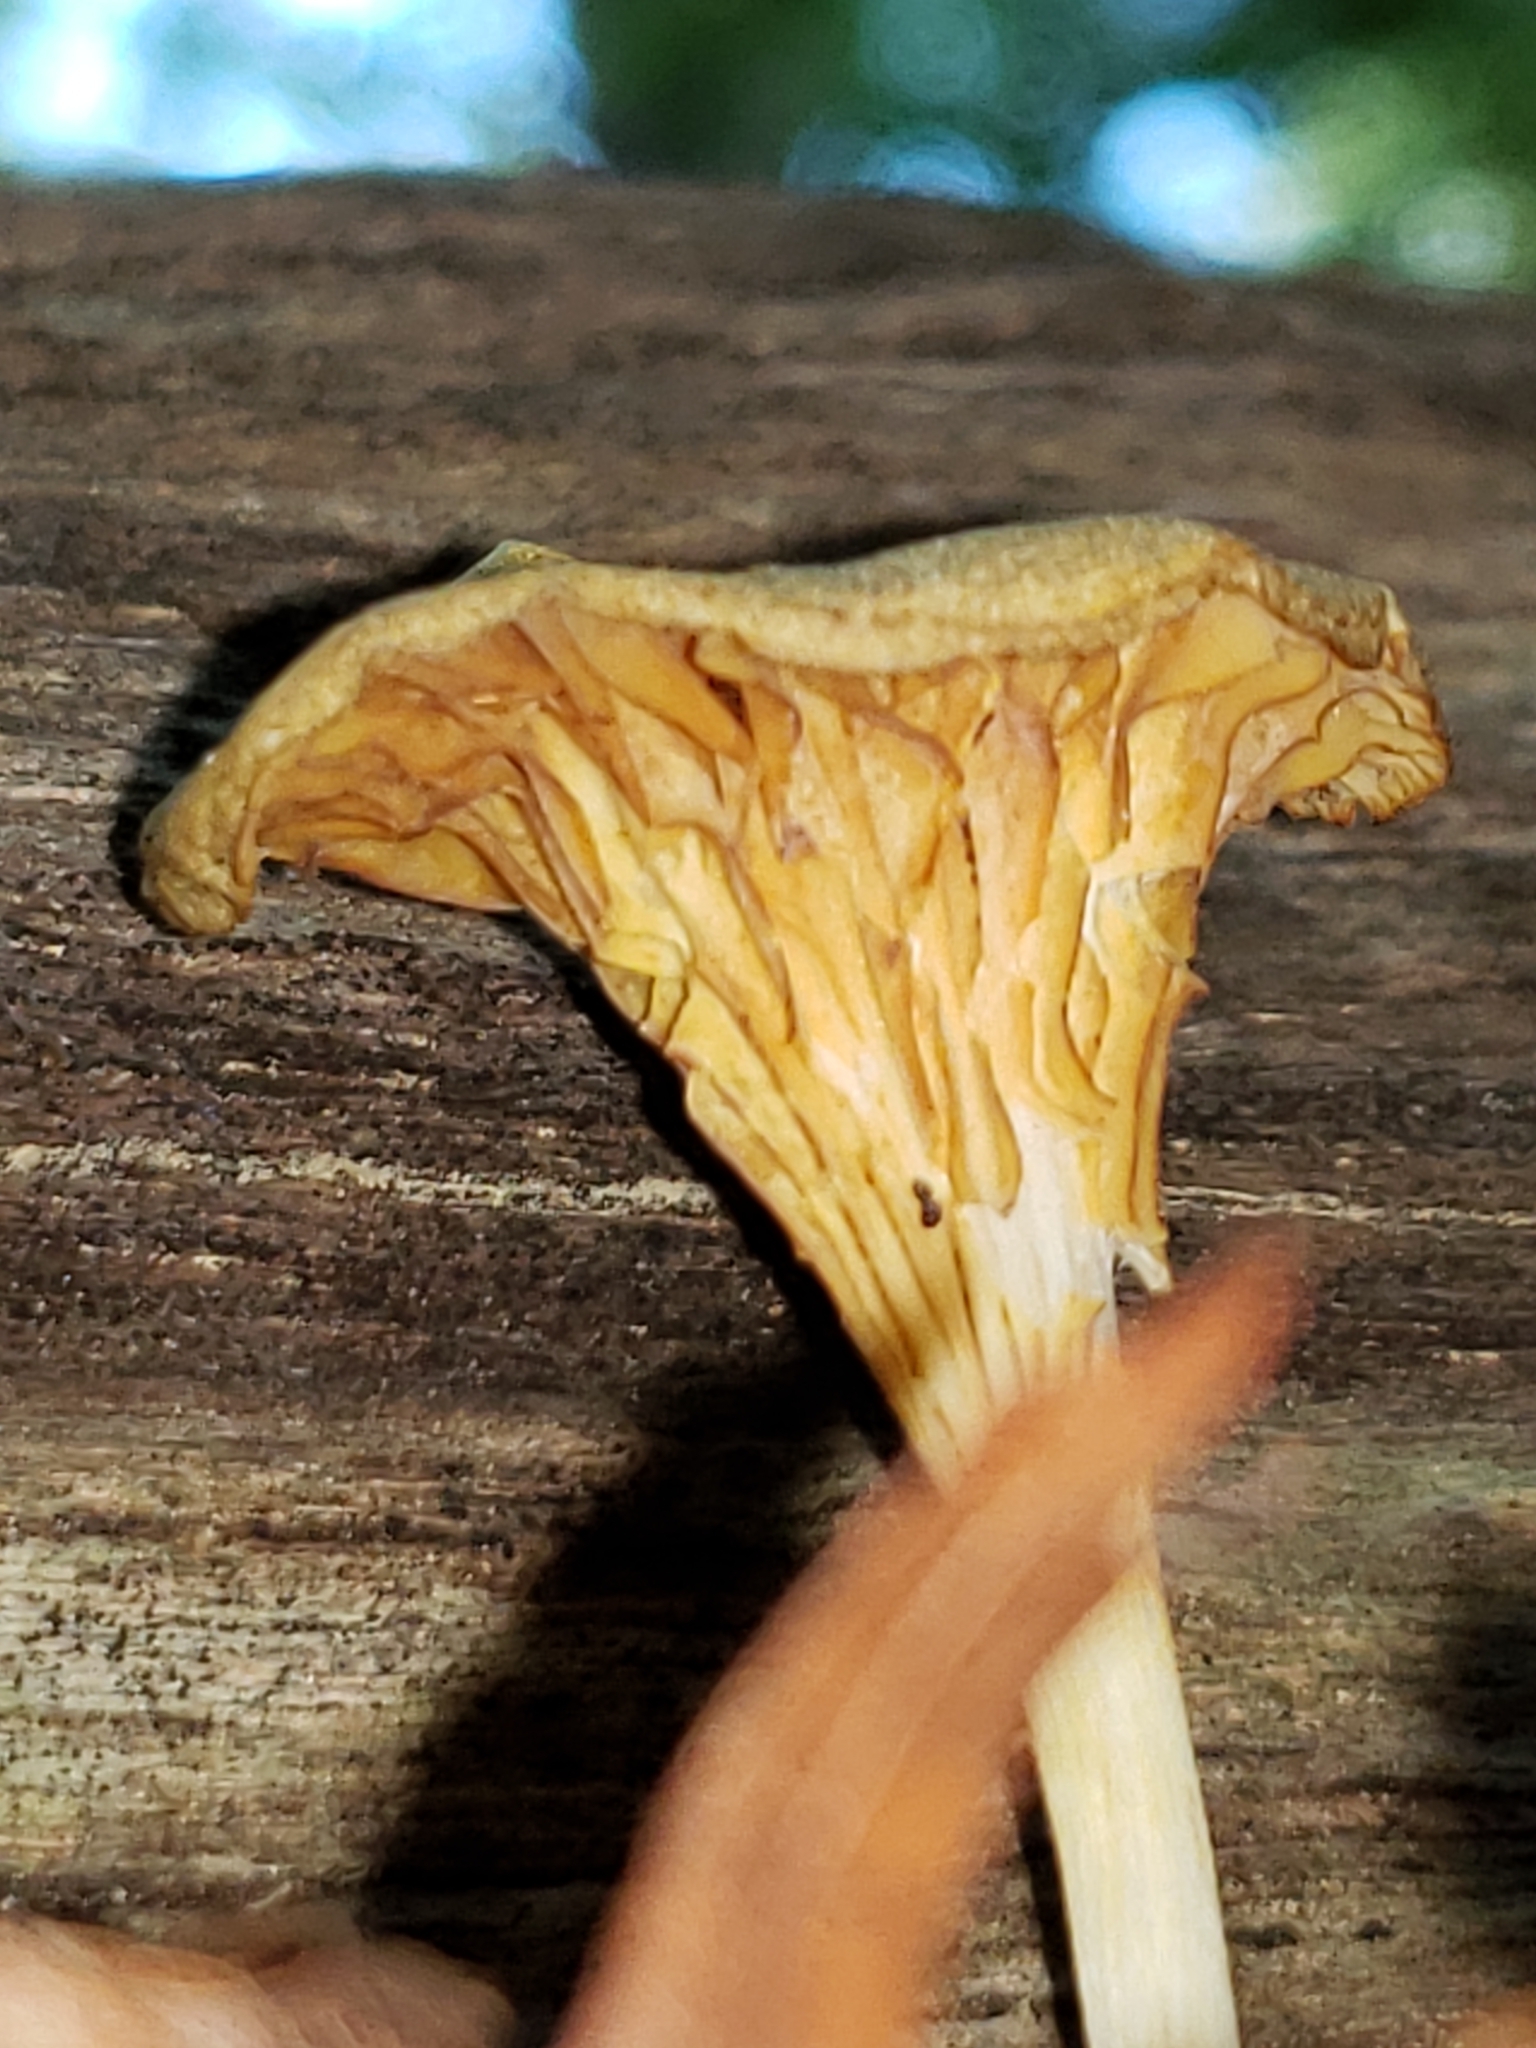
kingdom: Fungi
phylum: Basidiomycota
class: Agaricomycetes
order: Agaricales
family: Marasmiaceae
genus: Gerronema
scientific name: Gerronema strombodes
